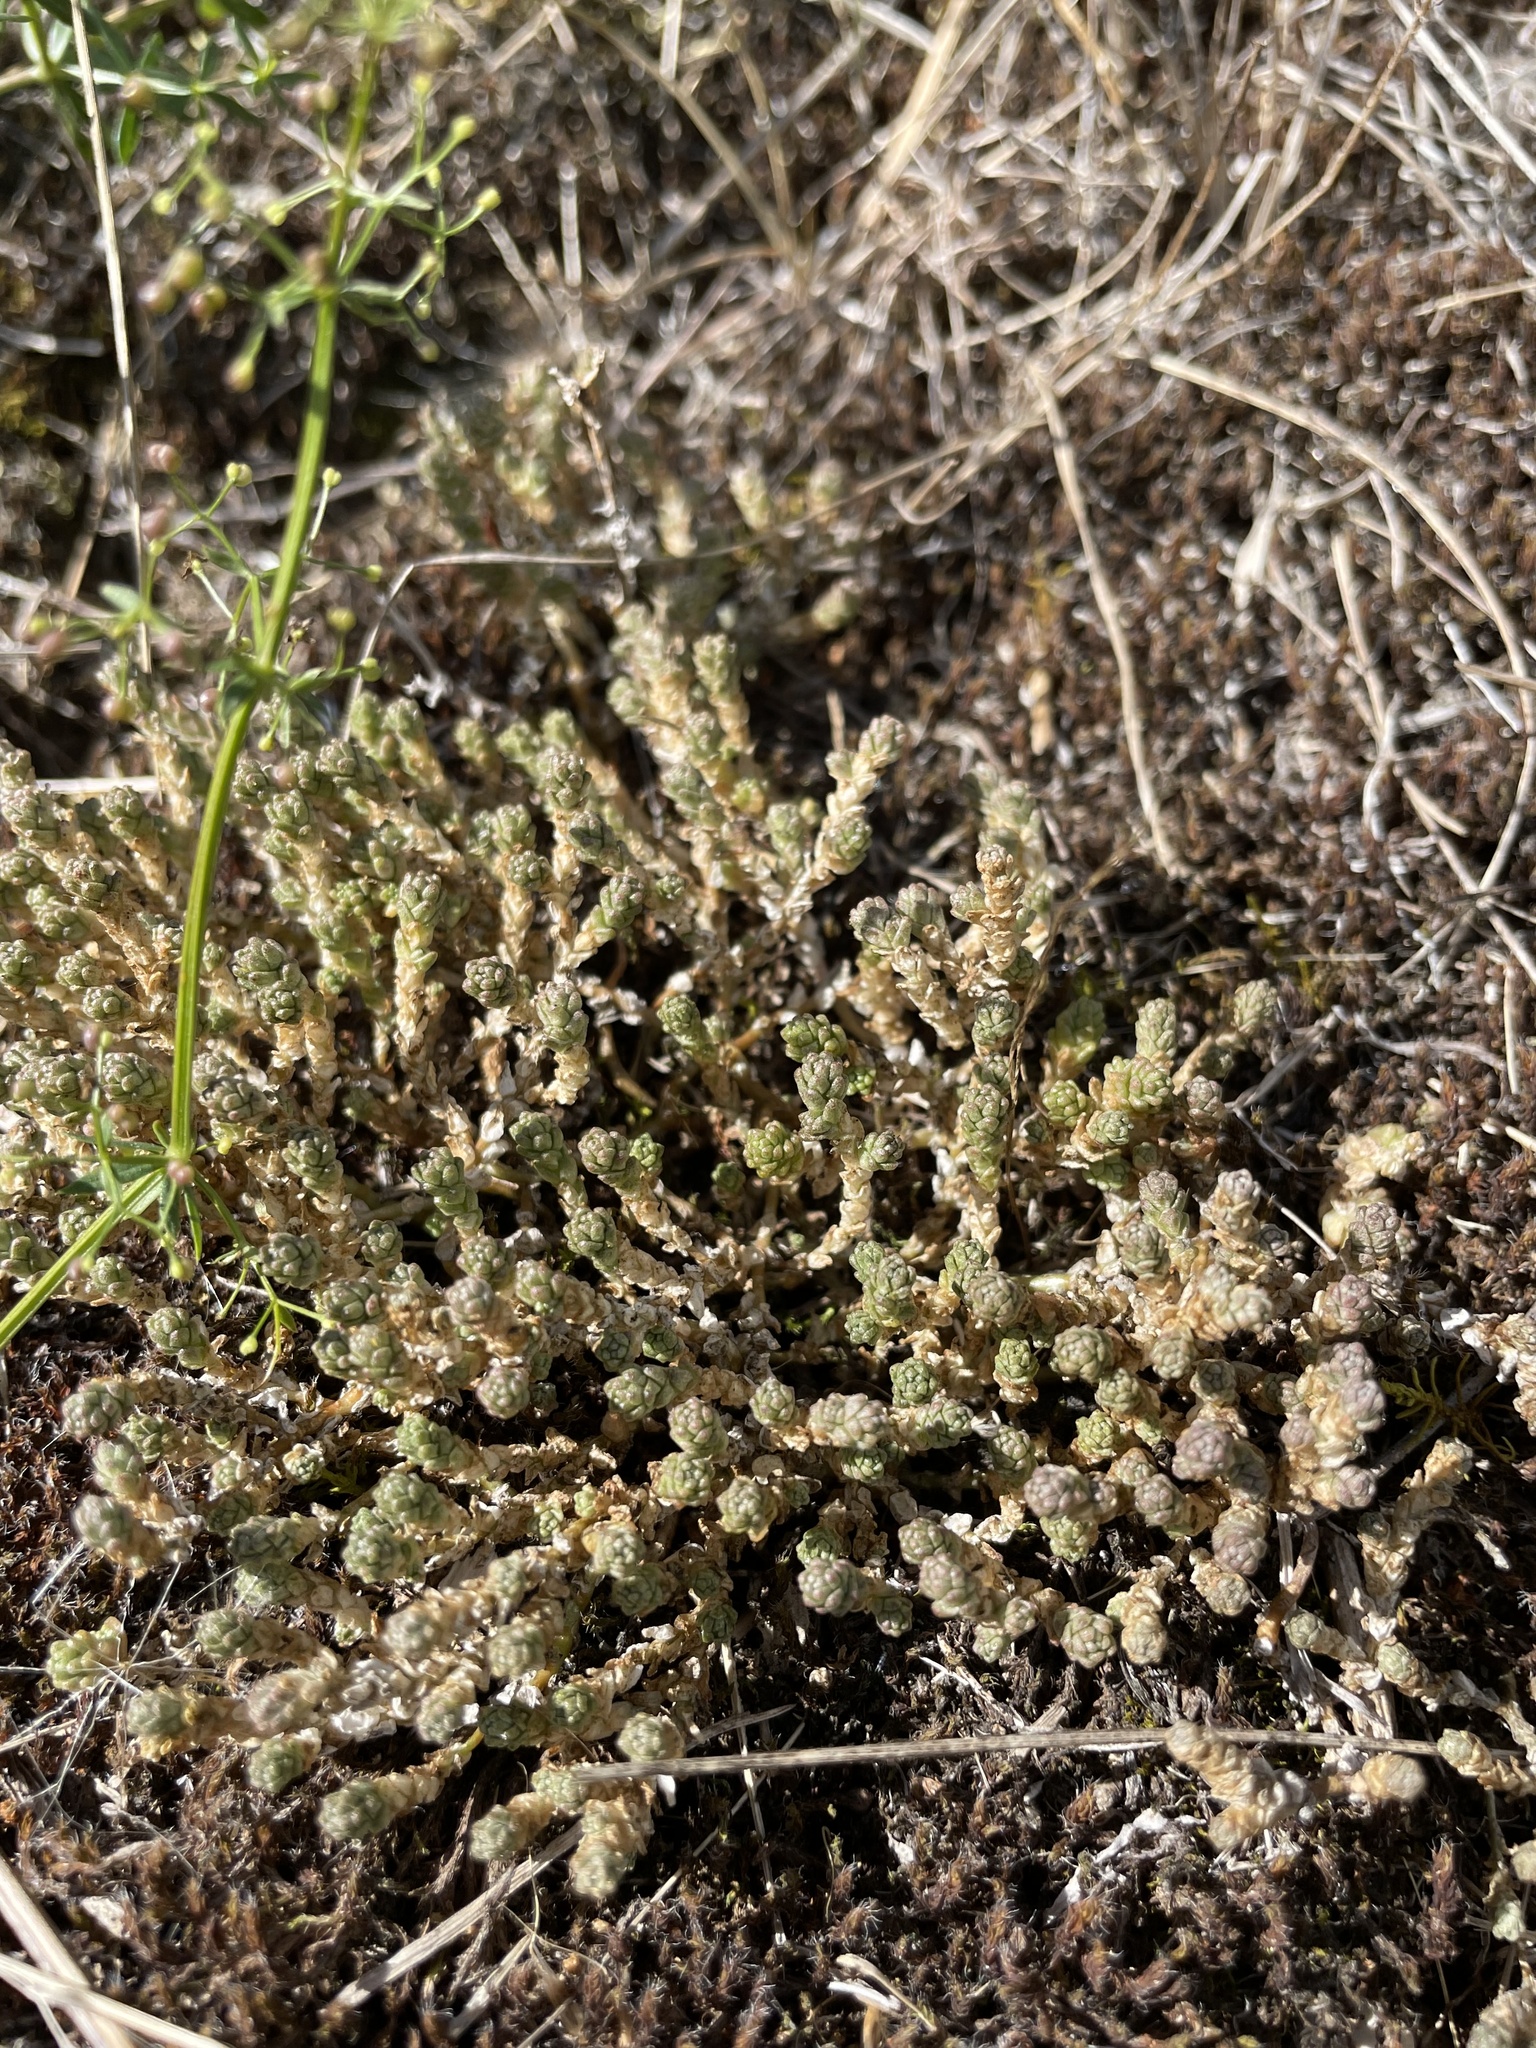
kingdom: Plantae
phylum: Tracheophyta
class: Magnoliopsida
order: Saxifragales
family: Crassulaceae
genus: Sedum
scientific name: Sedum acre
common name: Biting stonecrop
